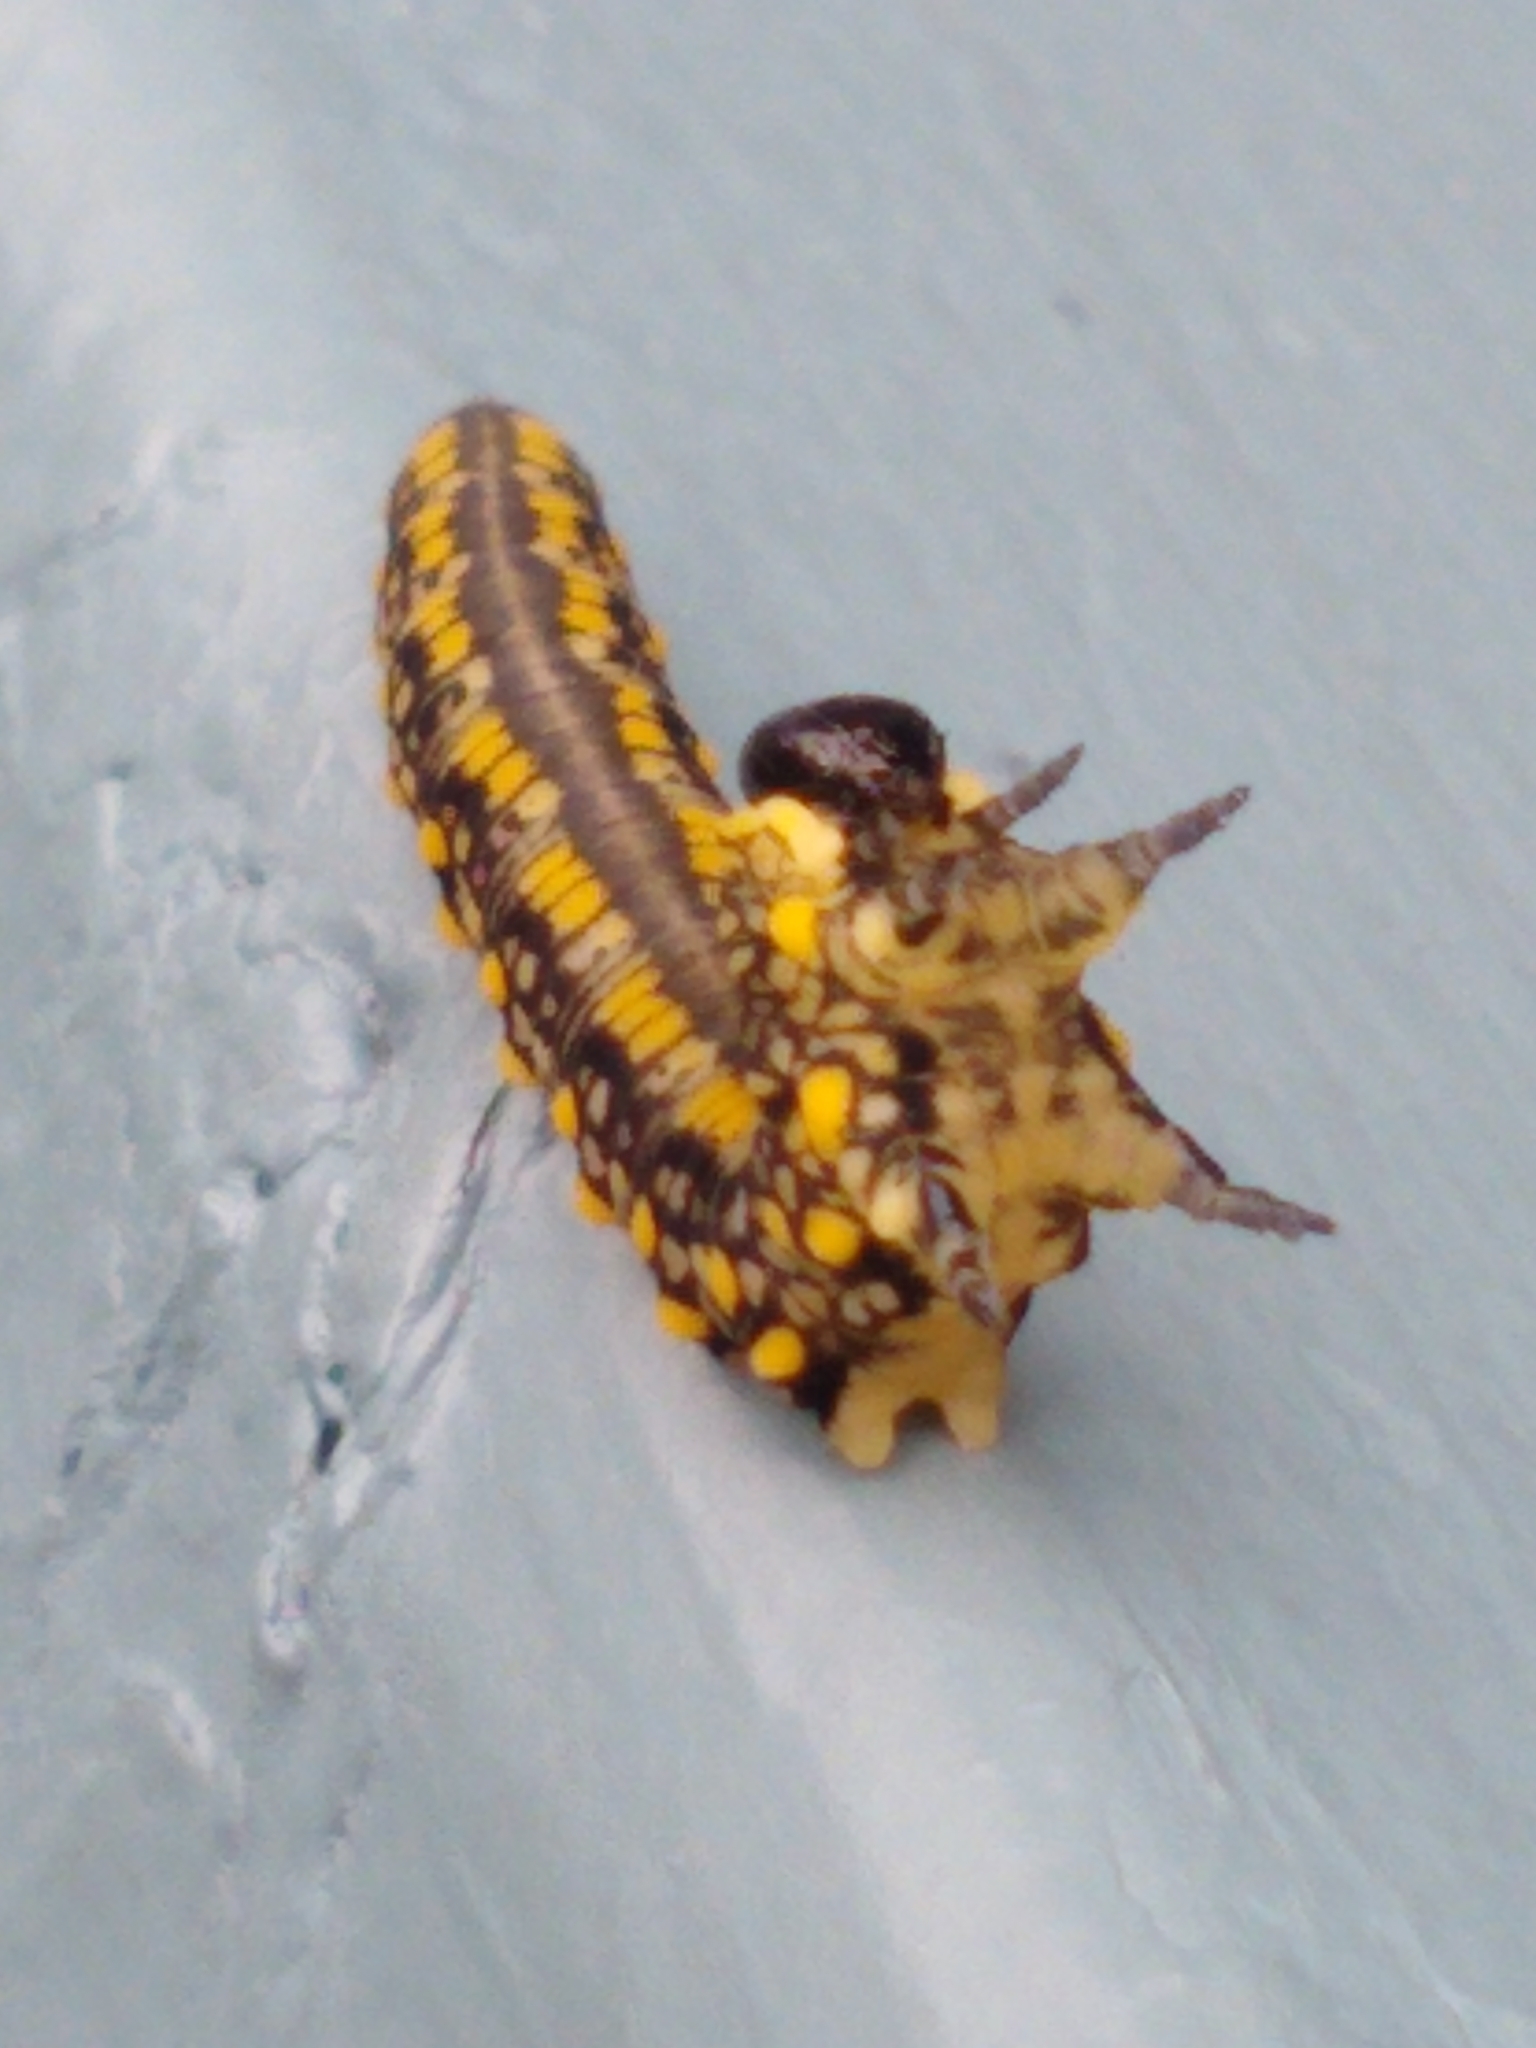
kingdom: Animalia
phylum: Arthropoda
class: Insecta
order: Hymenoptera
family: Diprionidae
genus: Diprion
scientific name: Diprion similis
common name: Pine sawfly
